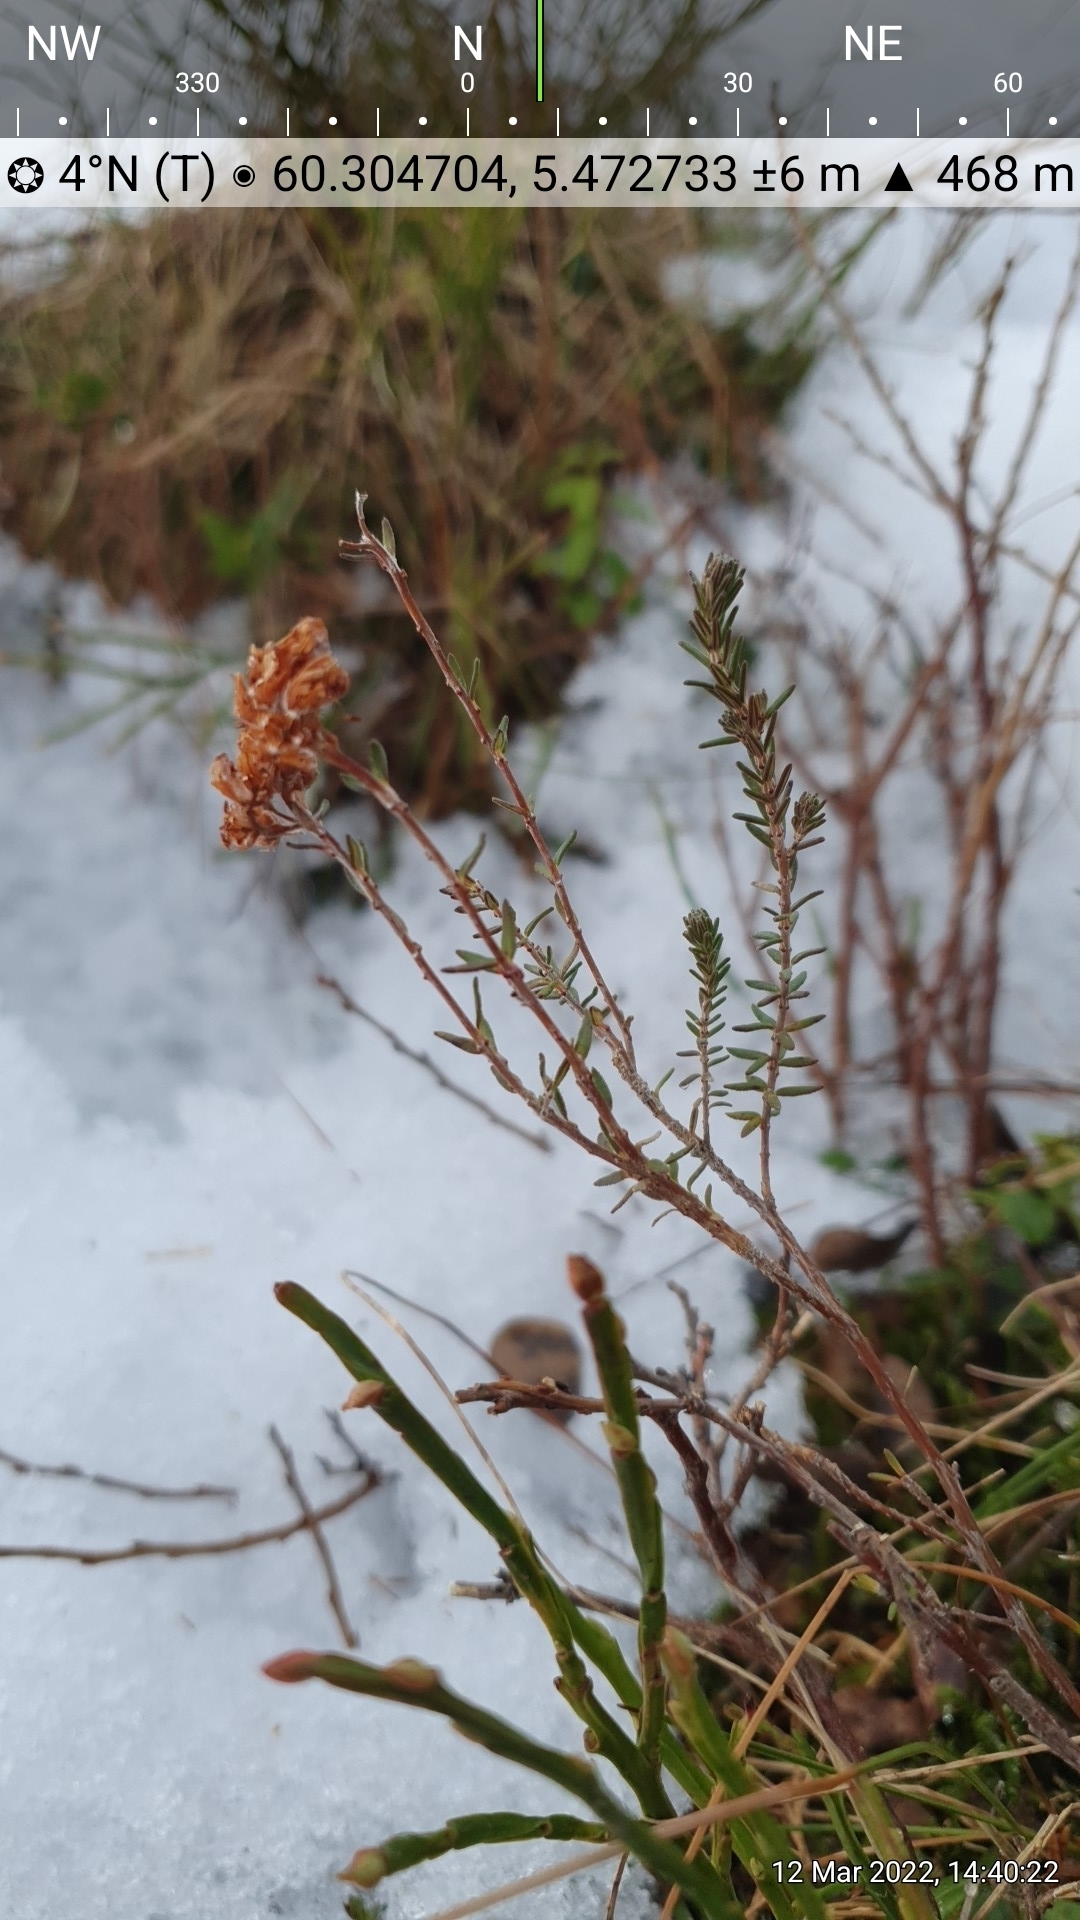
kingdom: Plantae
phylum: Tracheophyta
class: Magnoliopsida
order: Ericales
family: Ericaceae
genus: Erica
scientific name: Erica tetralix
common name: Cross-leaved heath
